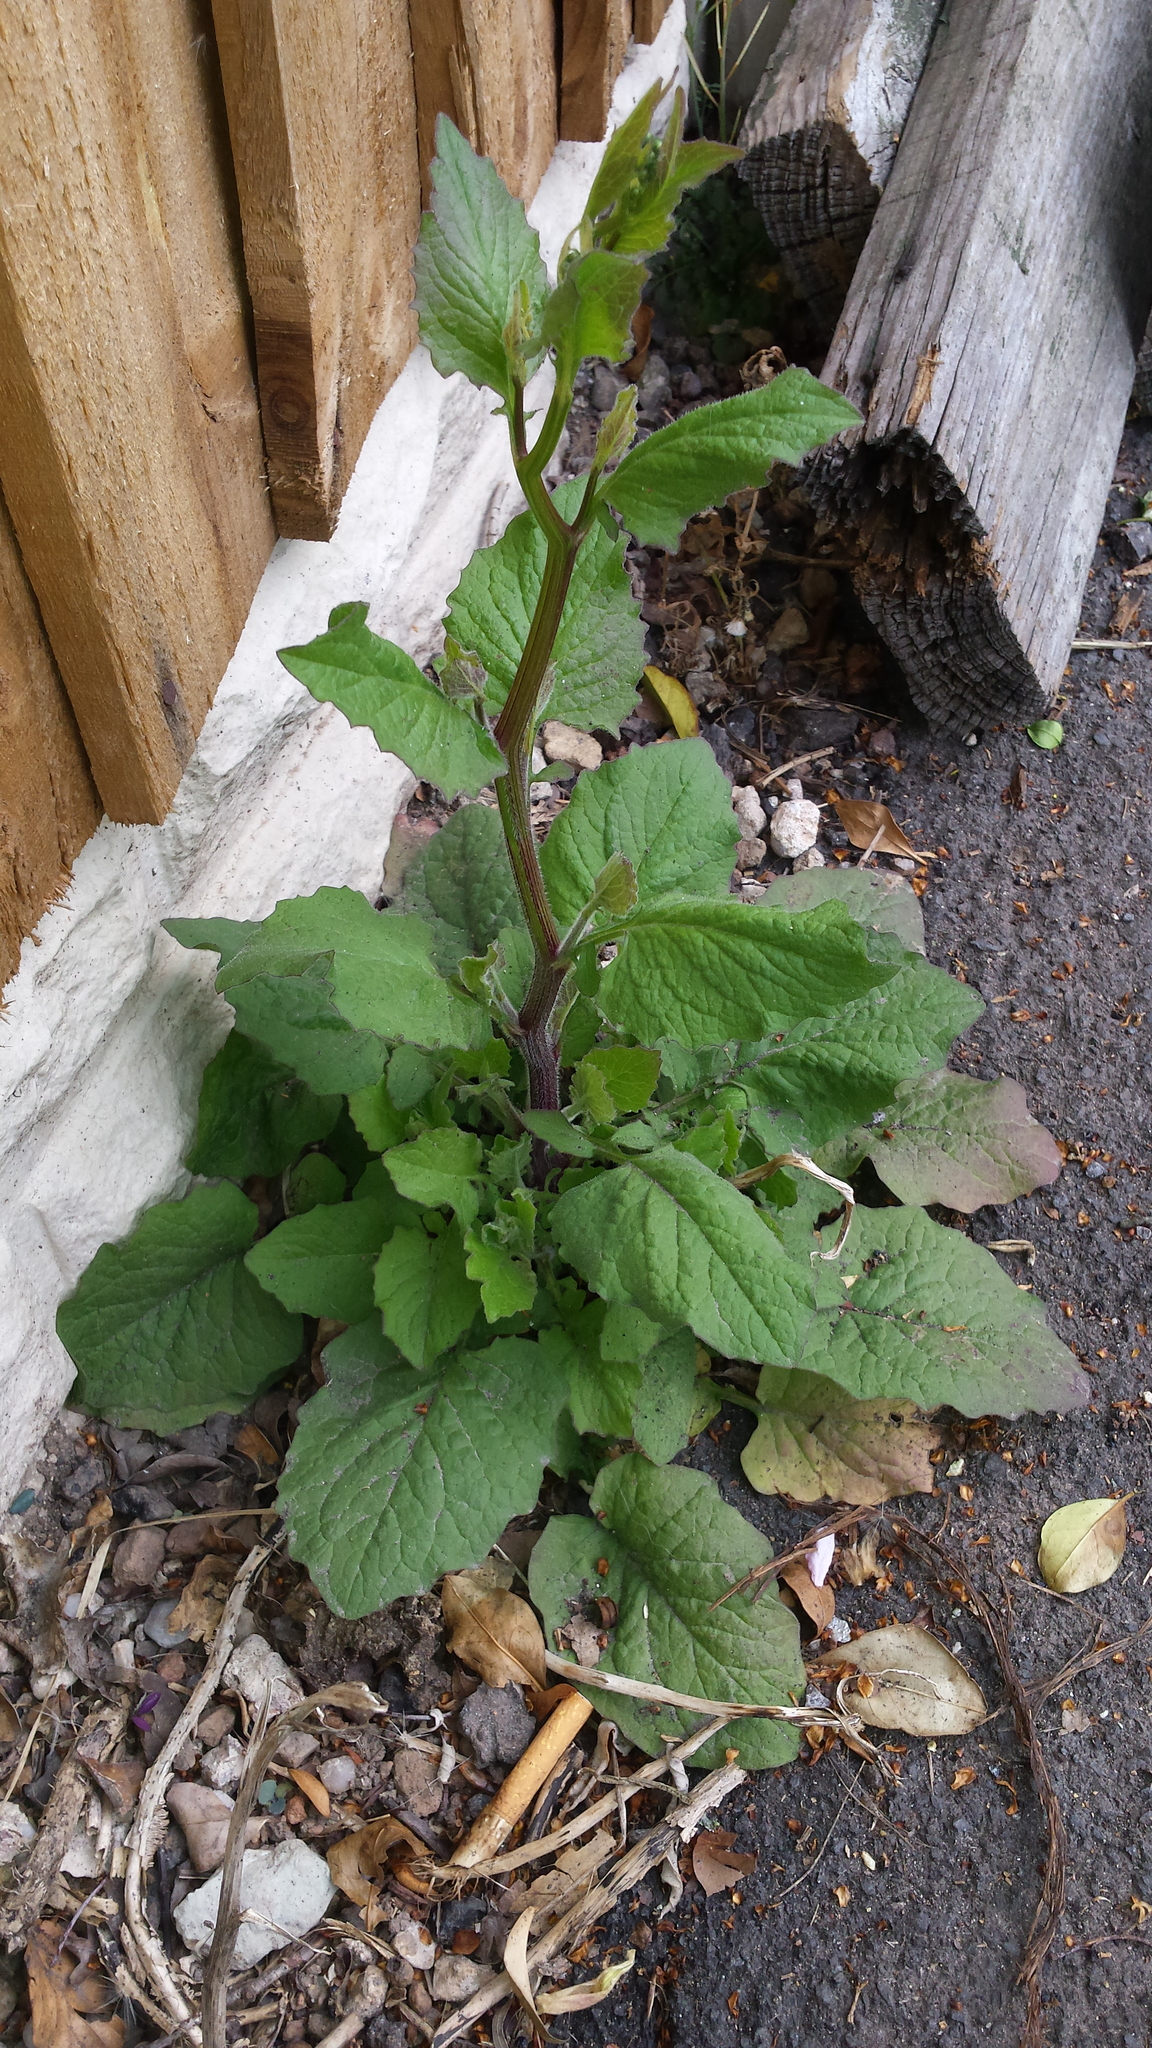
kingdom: Plantae
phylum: Tracheophyta
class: Magnoliopsida
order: Asterales
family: Asteraceae
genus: Lapsana
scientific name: Lapsana communis
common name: Nipplewort
